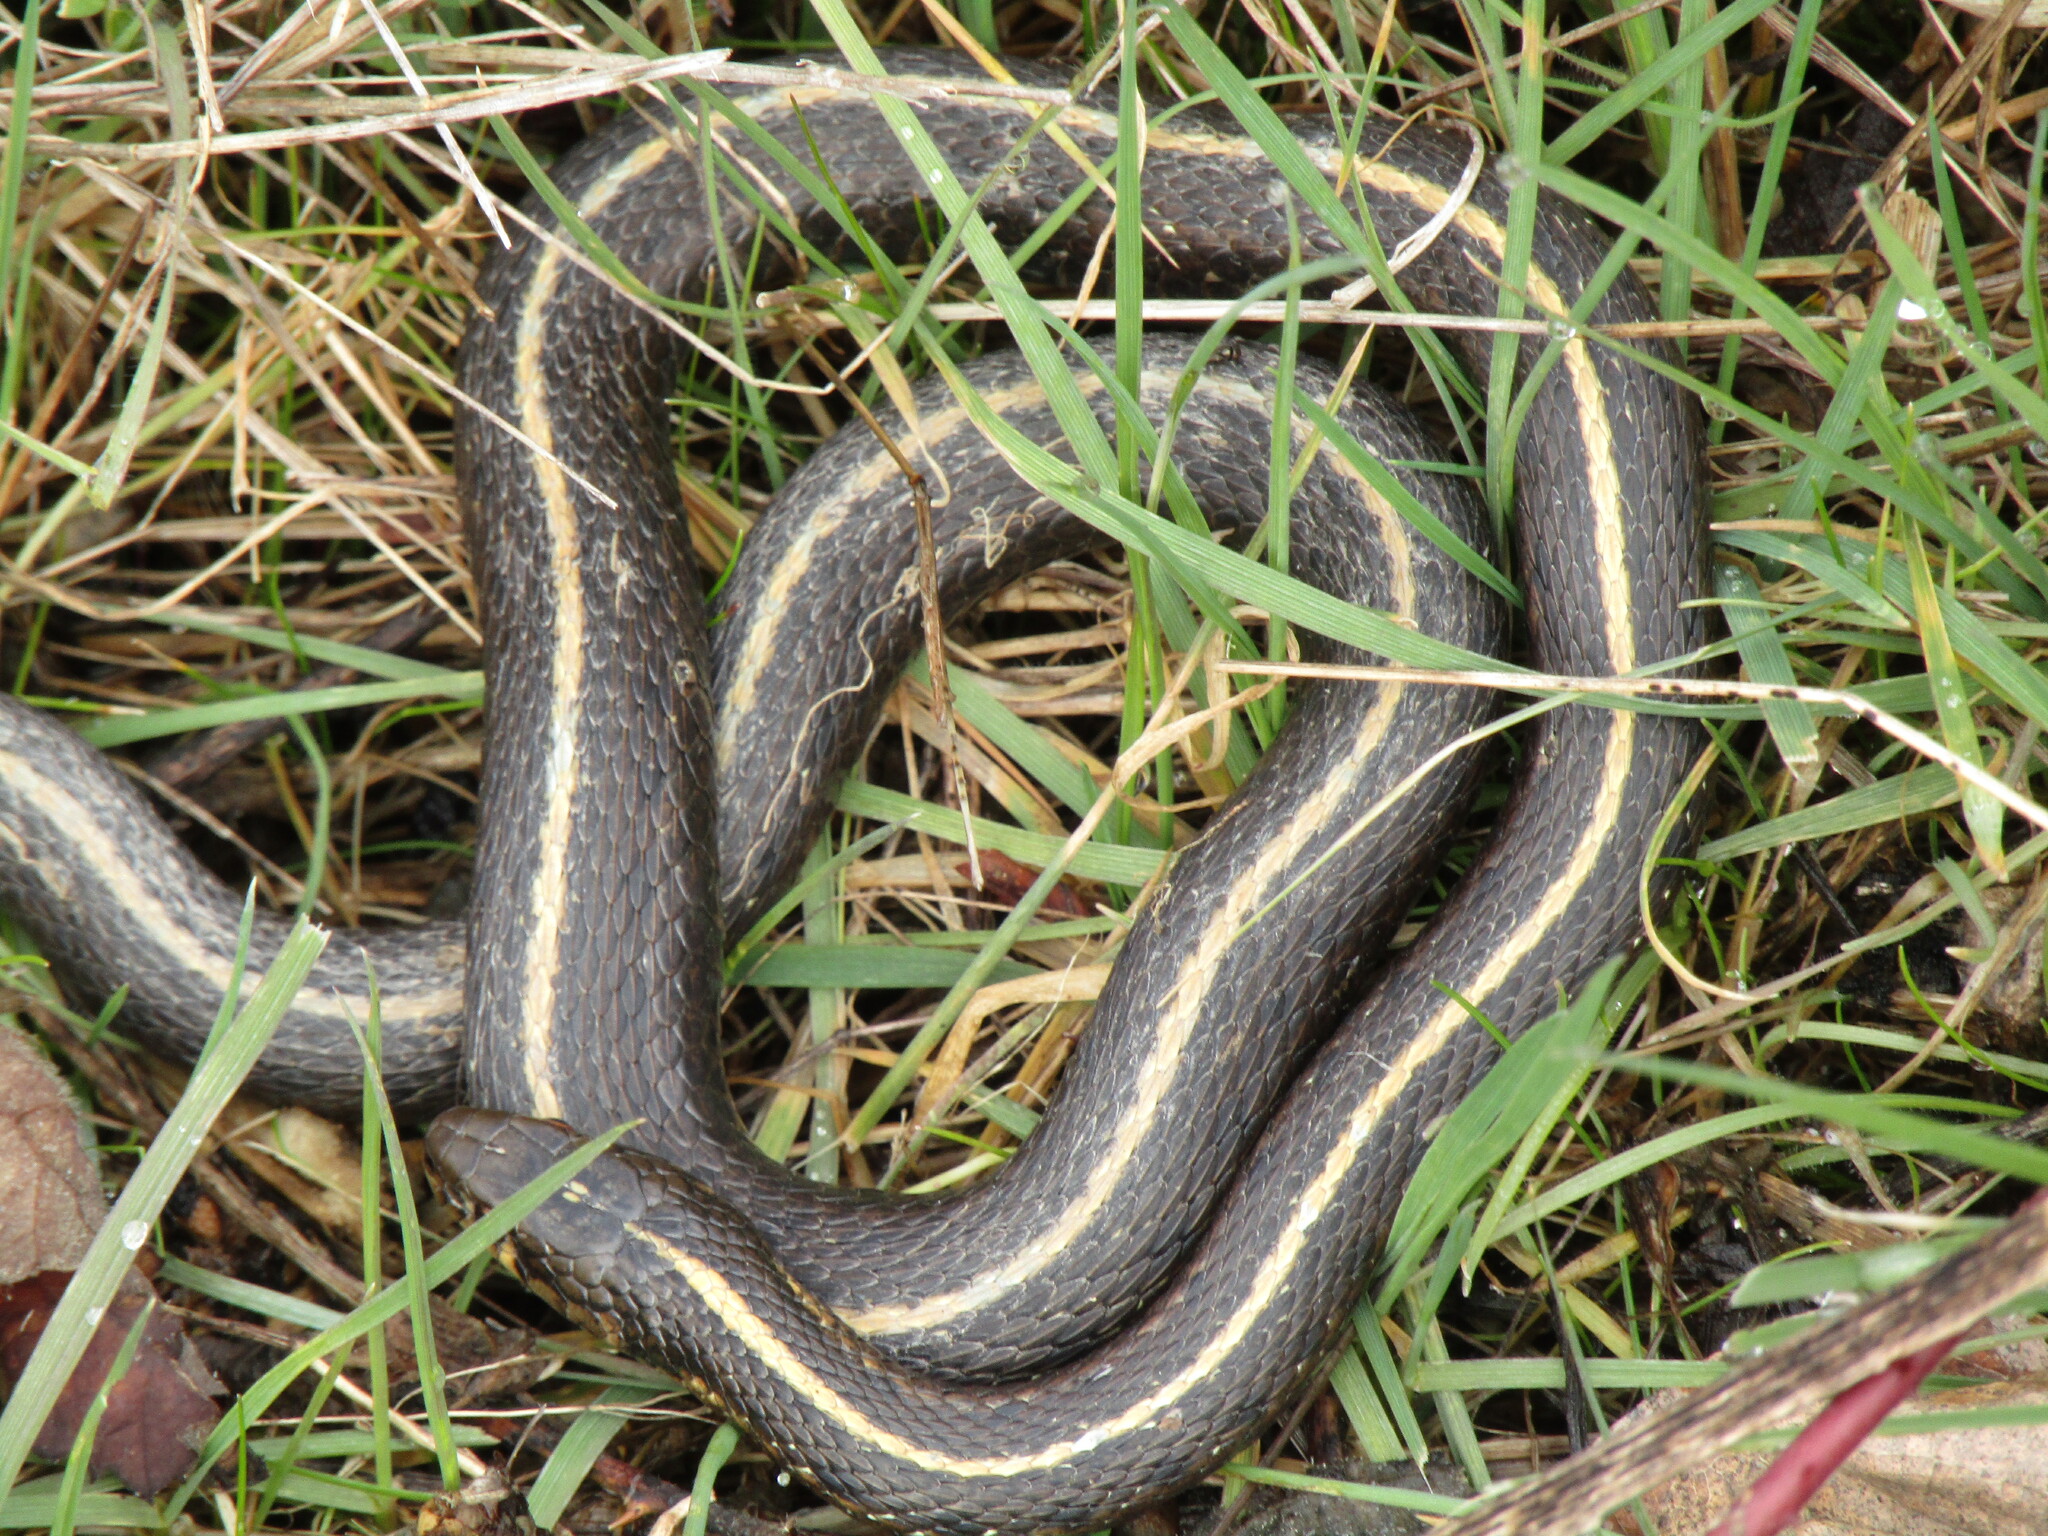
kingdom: Animalia
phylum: Chordata
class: Squamata
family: Colubridae
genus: Thamnophis
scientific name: Thamnophis ordinoides
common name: Northwestern garter snake
